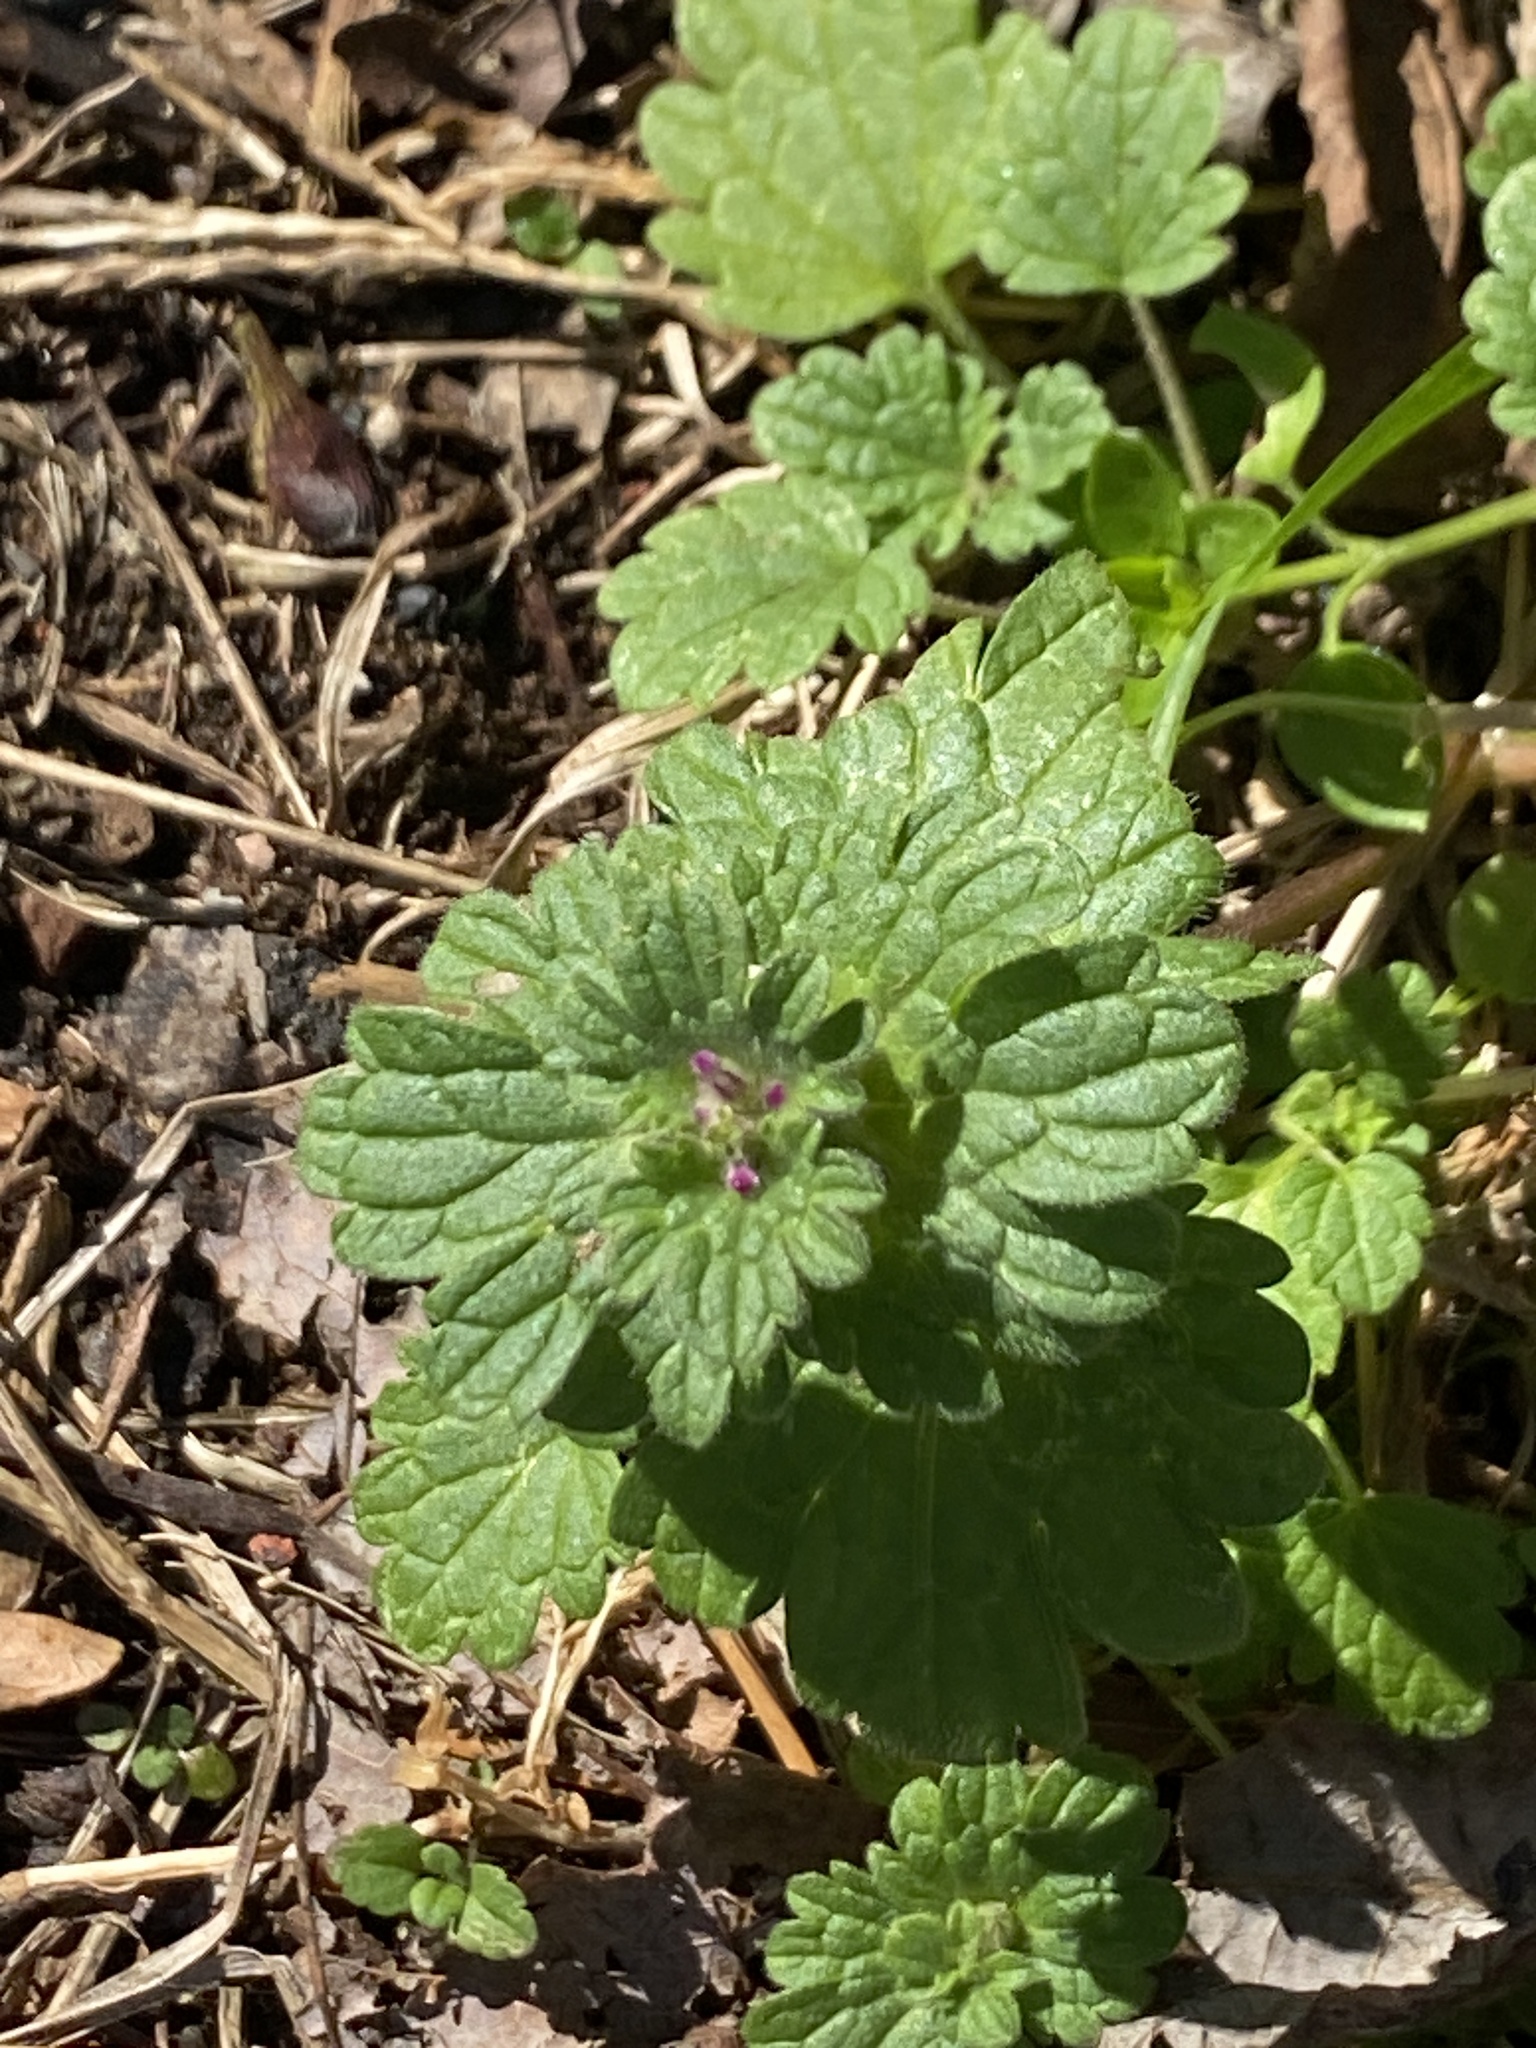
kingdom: Plantae
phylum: Tracheophyta
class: Magnoliopsida
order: Lamiales
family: Lamiaceae
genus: Lamium
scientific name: Lamium amplexicaule
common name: Henbit dead-nettle
